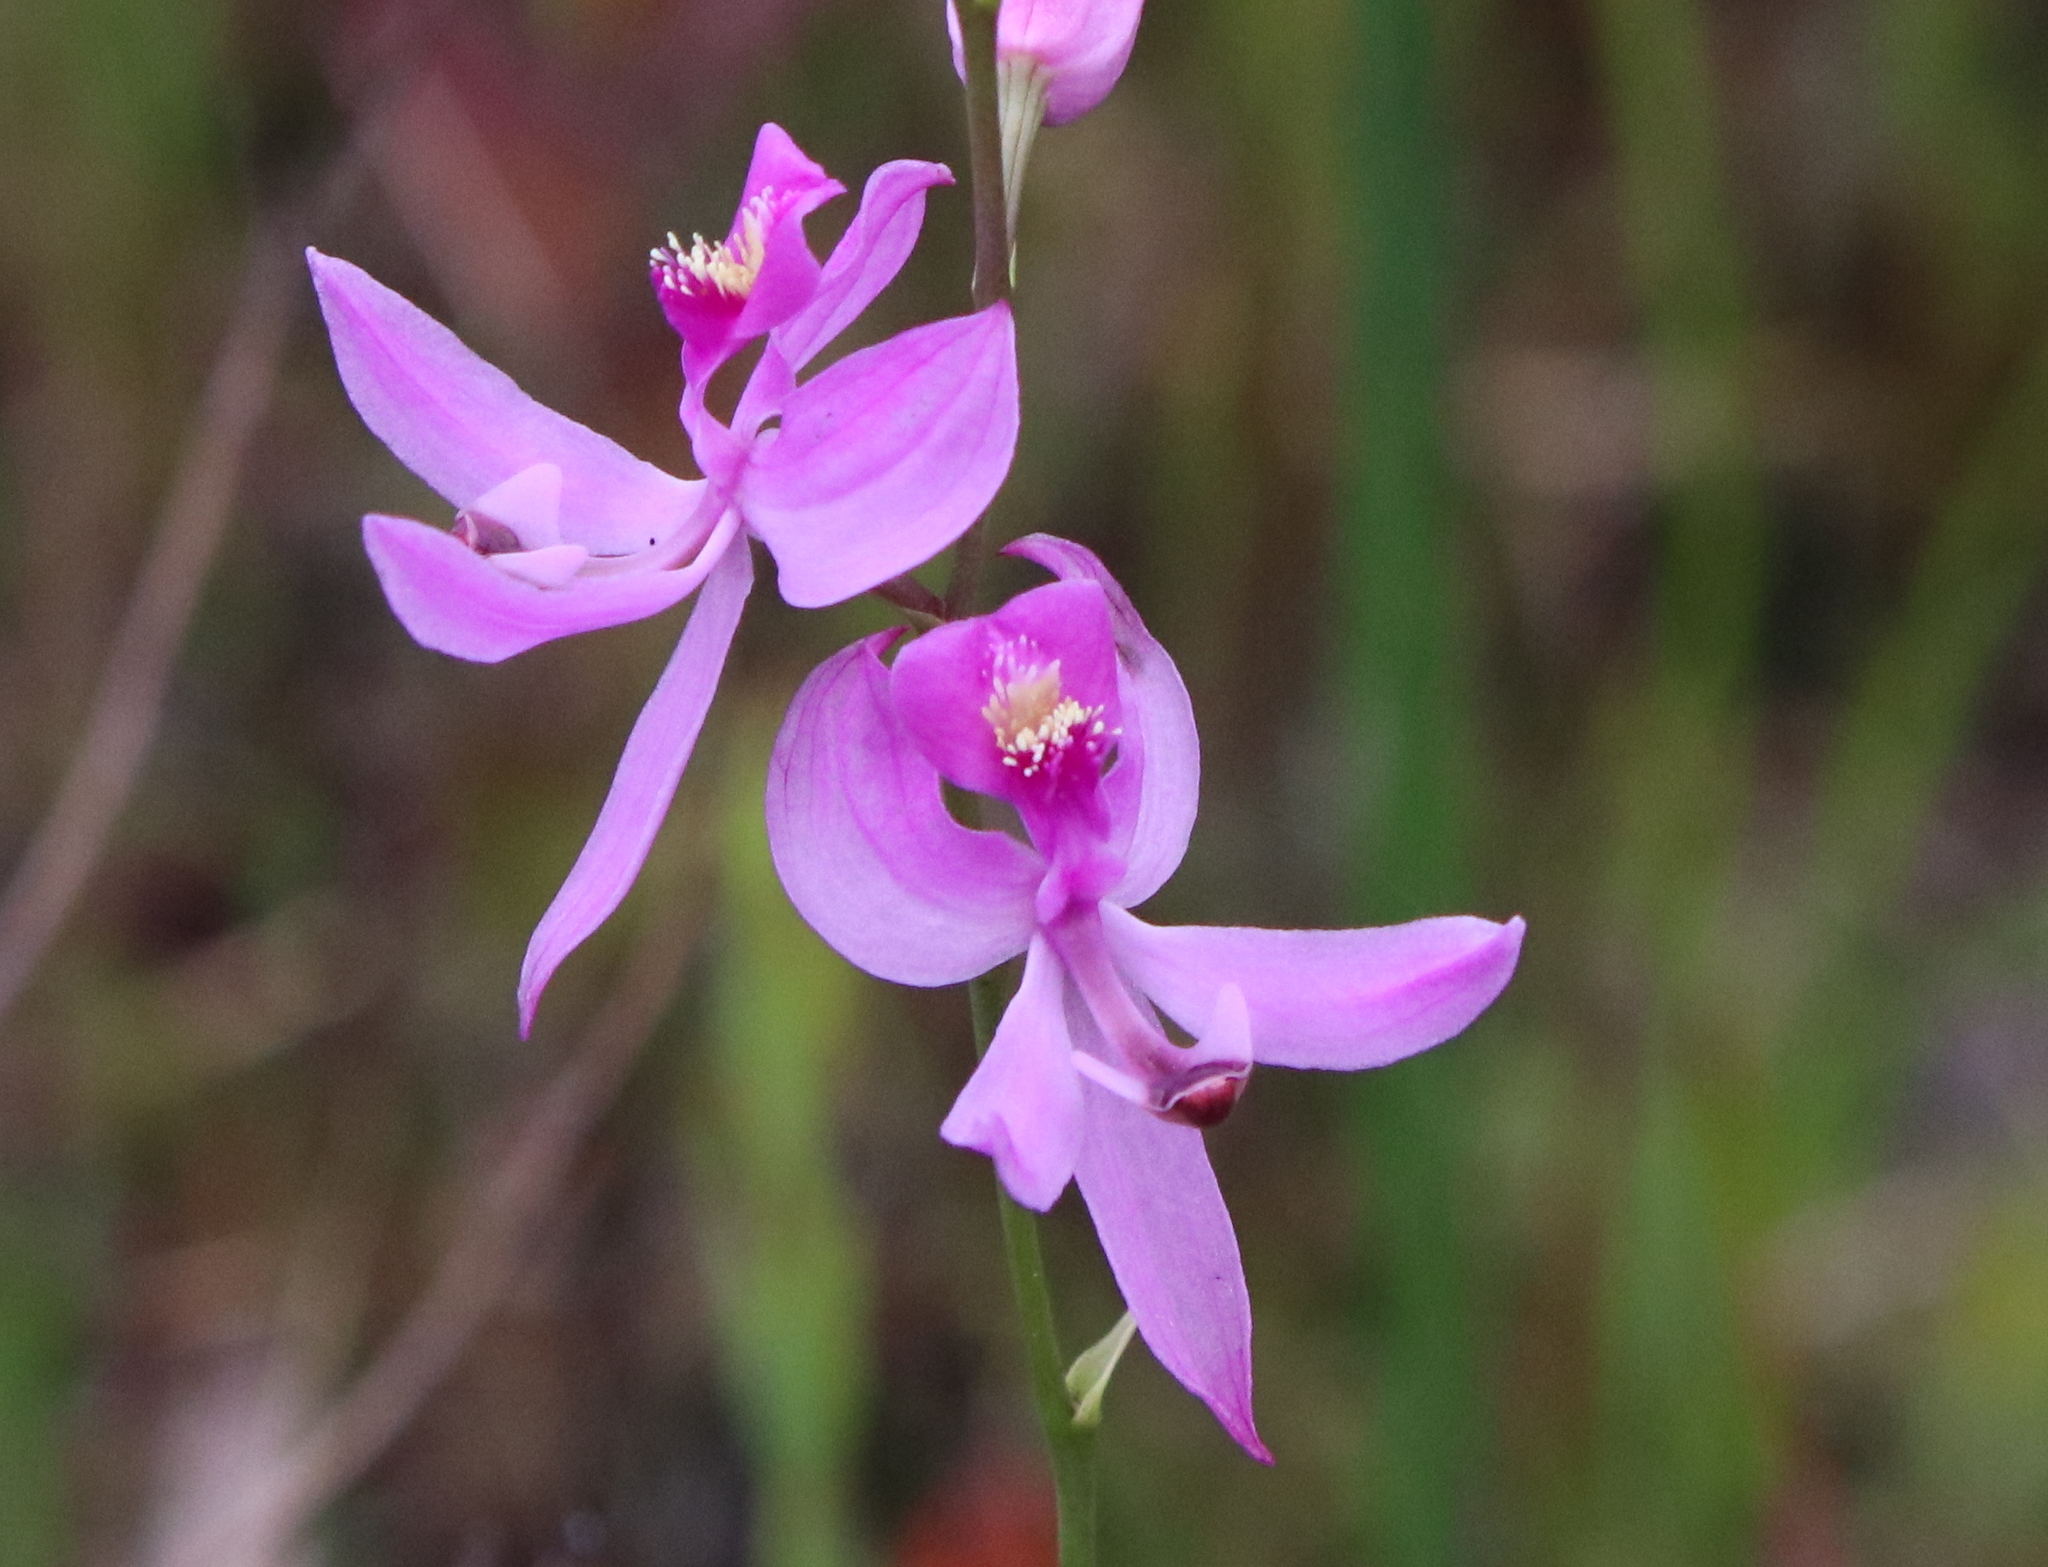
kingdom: Plantae
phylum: Tracheophyta
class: Liliopsida
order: Asparagales
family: Orchidaceae
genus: Calopogon
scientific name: Calopogon pallidus
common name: Pale grasspink
